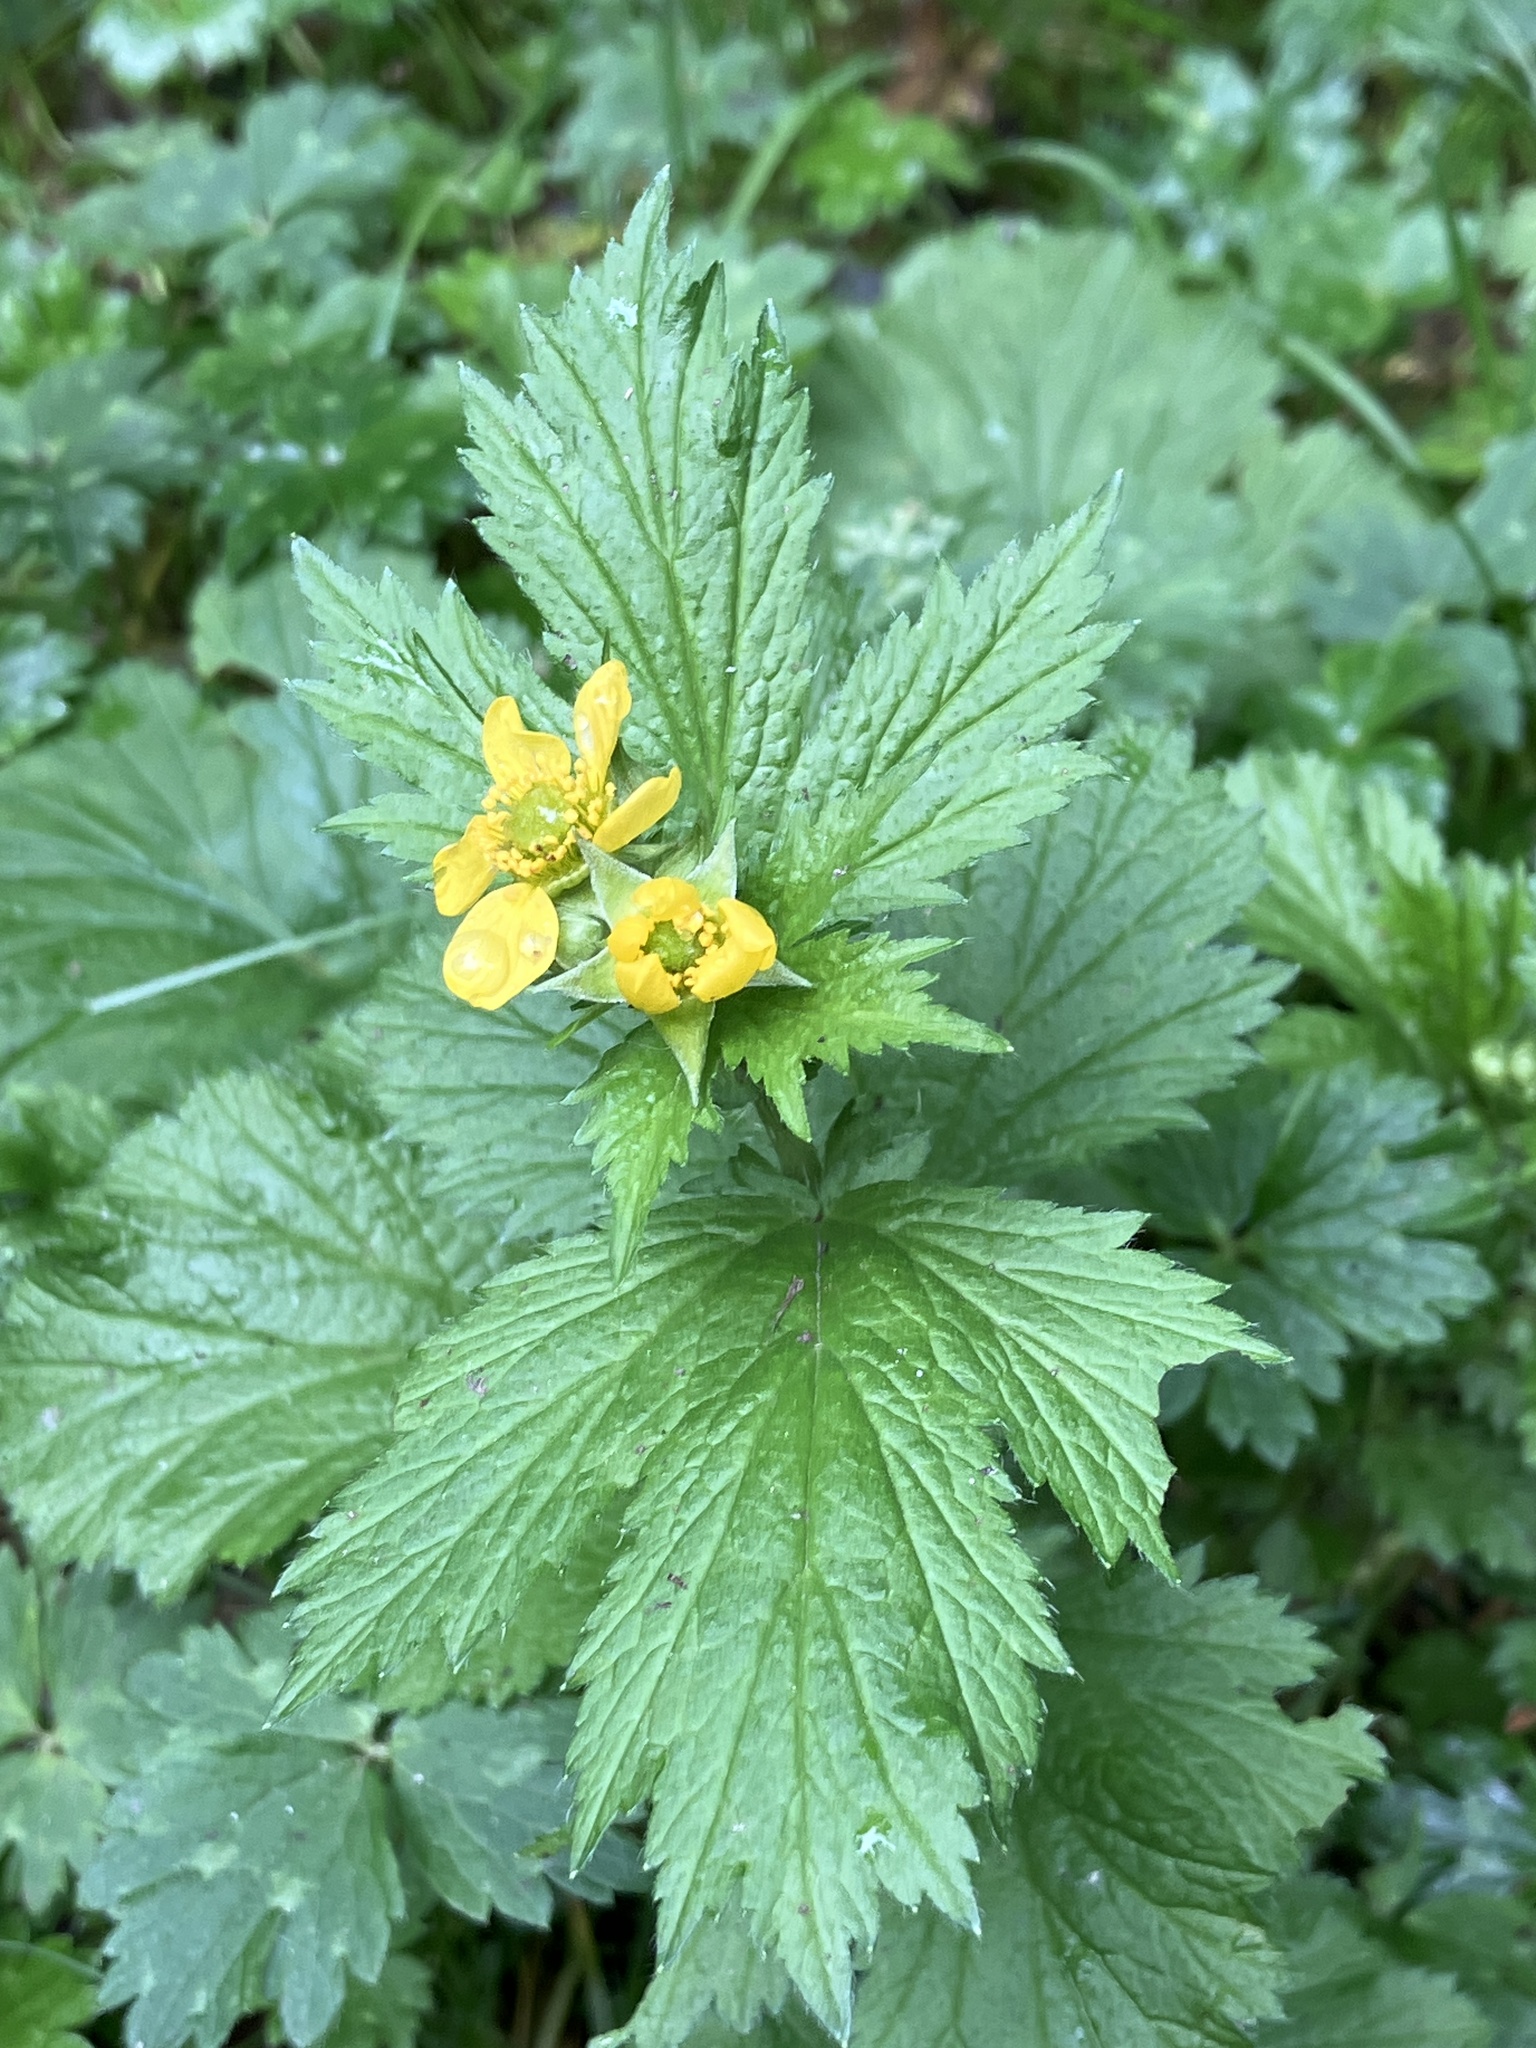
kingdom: Plantae
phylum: Tracheophyta
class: Magnoliopsida
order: Rosales
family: Rosaceae
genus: Geum
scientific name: Geum macrophyllum
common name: Large-leaved avens
